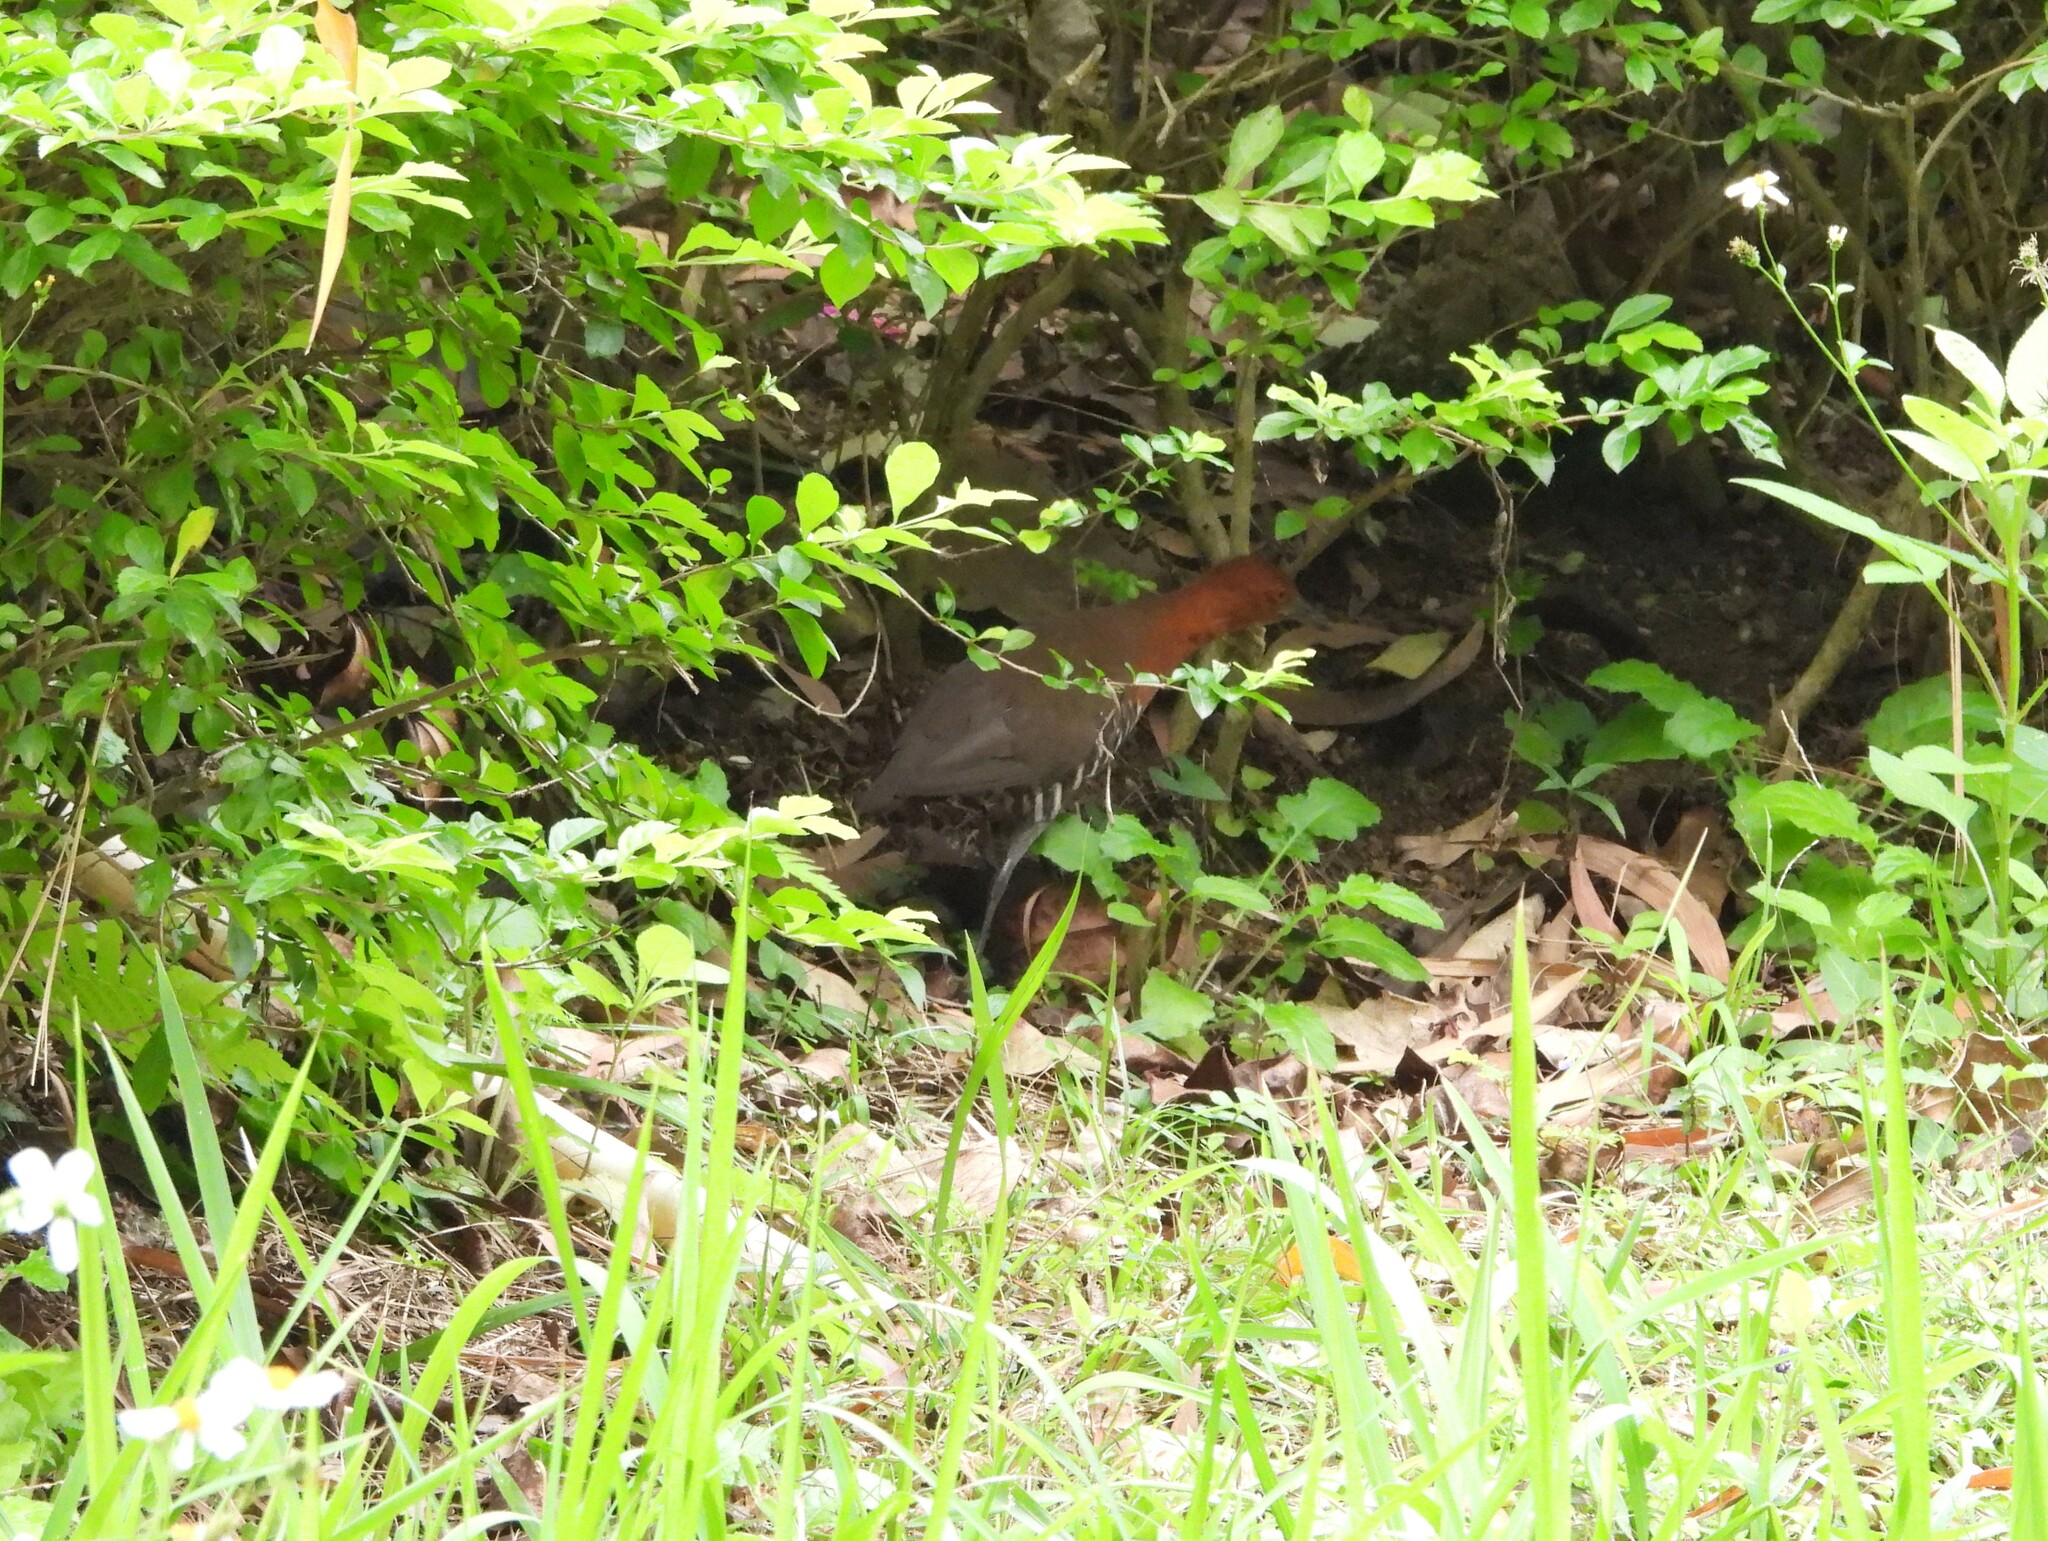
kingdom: Animalia
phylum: Chordata
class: Aves
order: Gruiformes
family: Rallidae
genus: Rallina
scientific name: Rallina eurizonoides
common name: Slaty-legged crake
